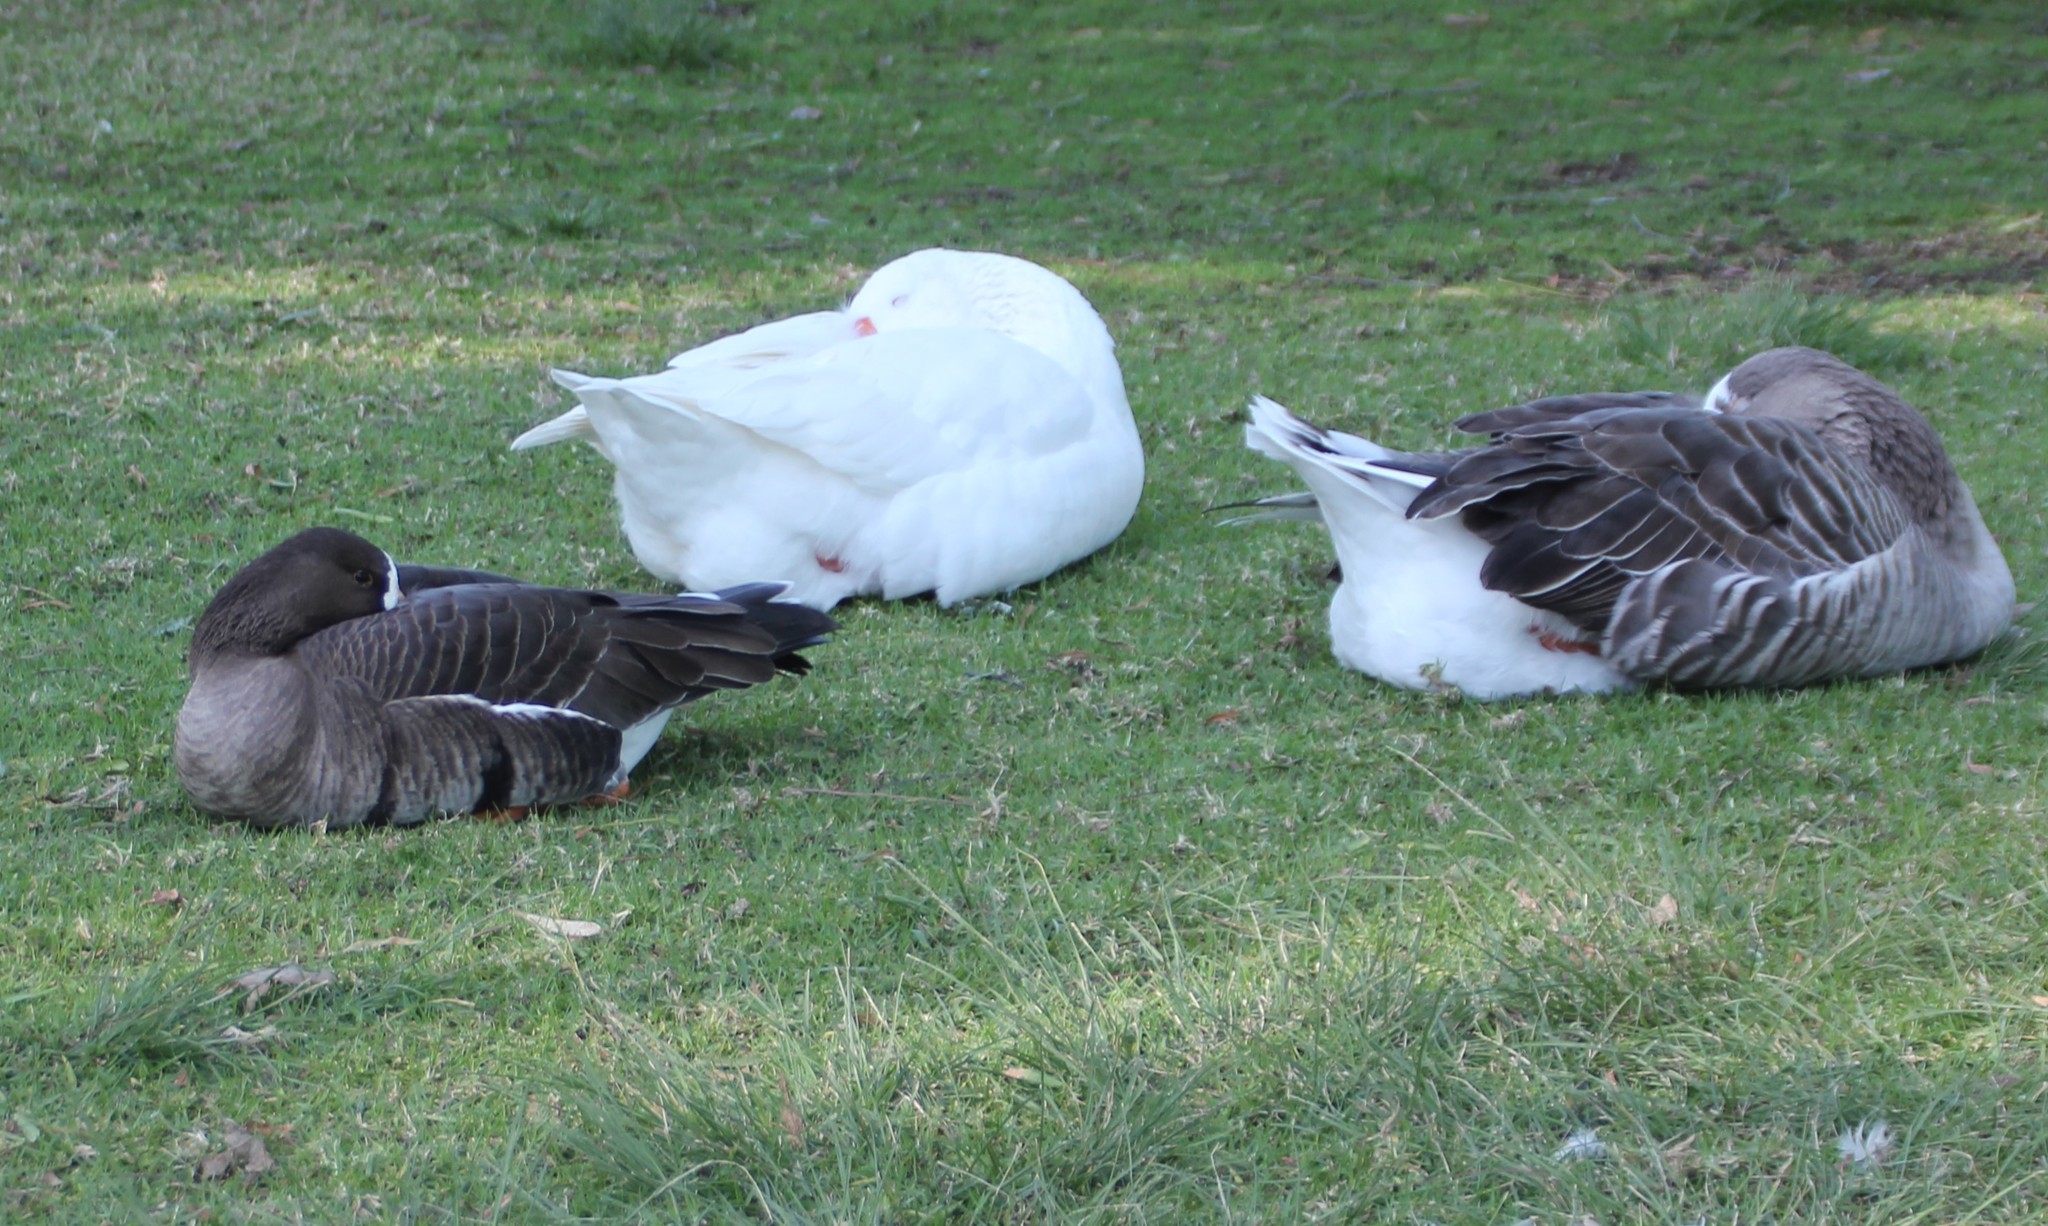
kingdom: Animalia
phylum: Chordata
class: Aves
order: Anseriformes
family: Anatidae
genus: Anser
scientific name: Anser albifrons
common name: Greater white-fronted goose
